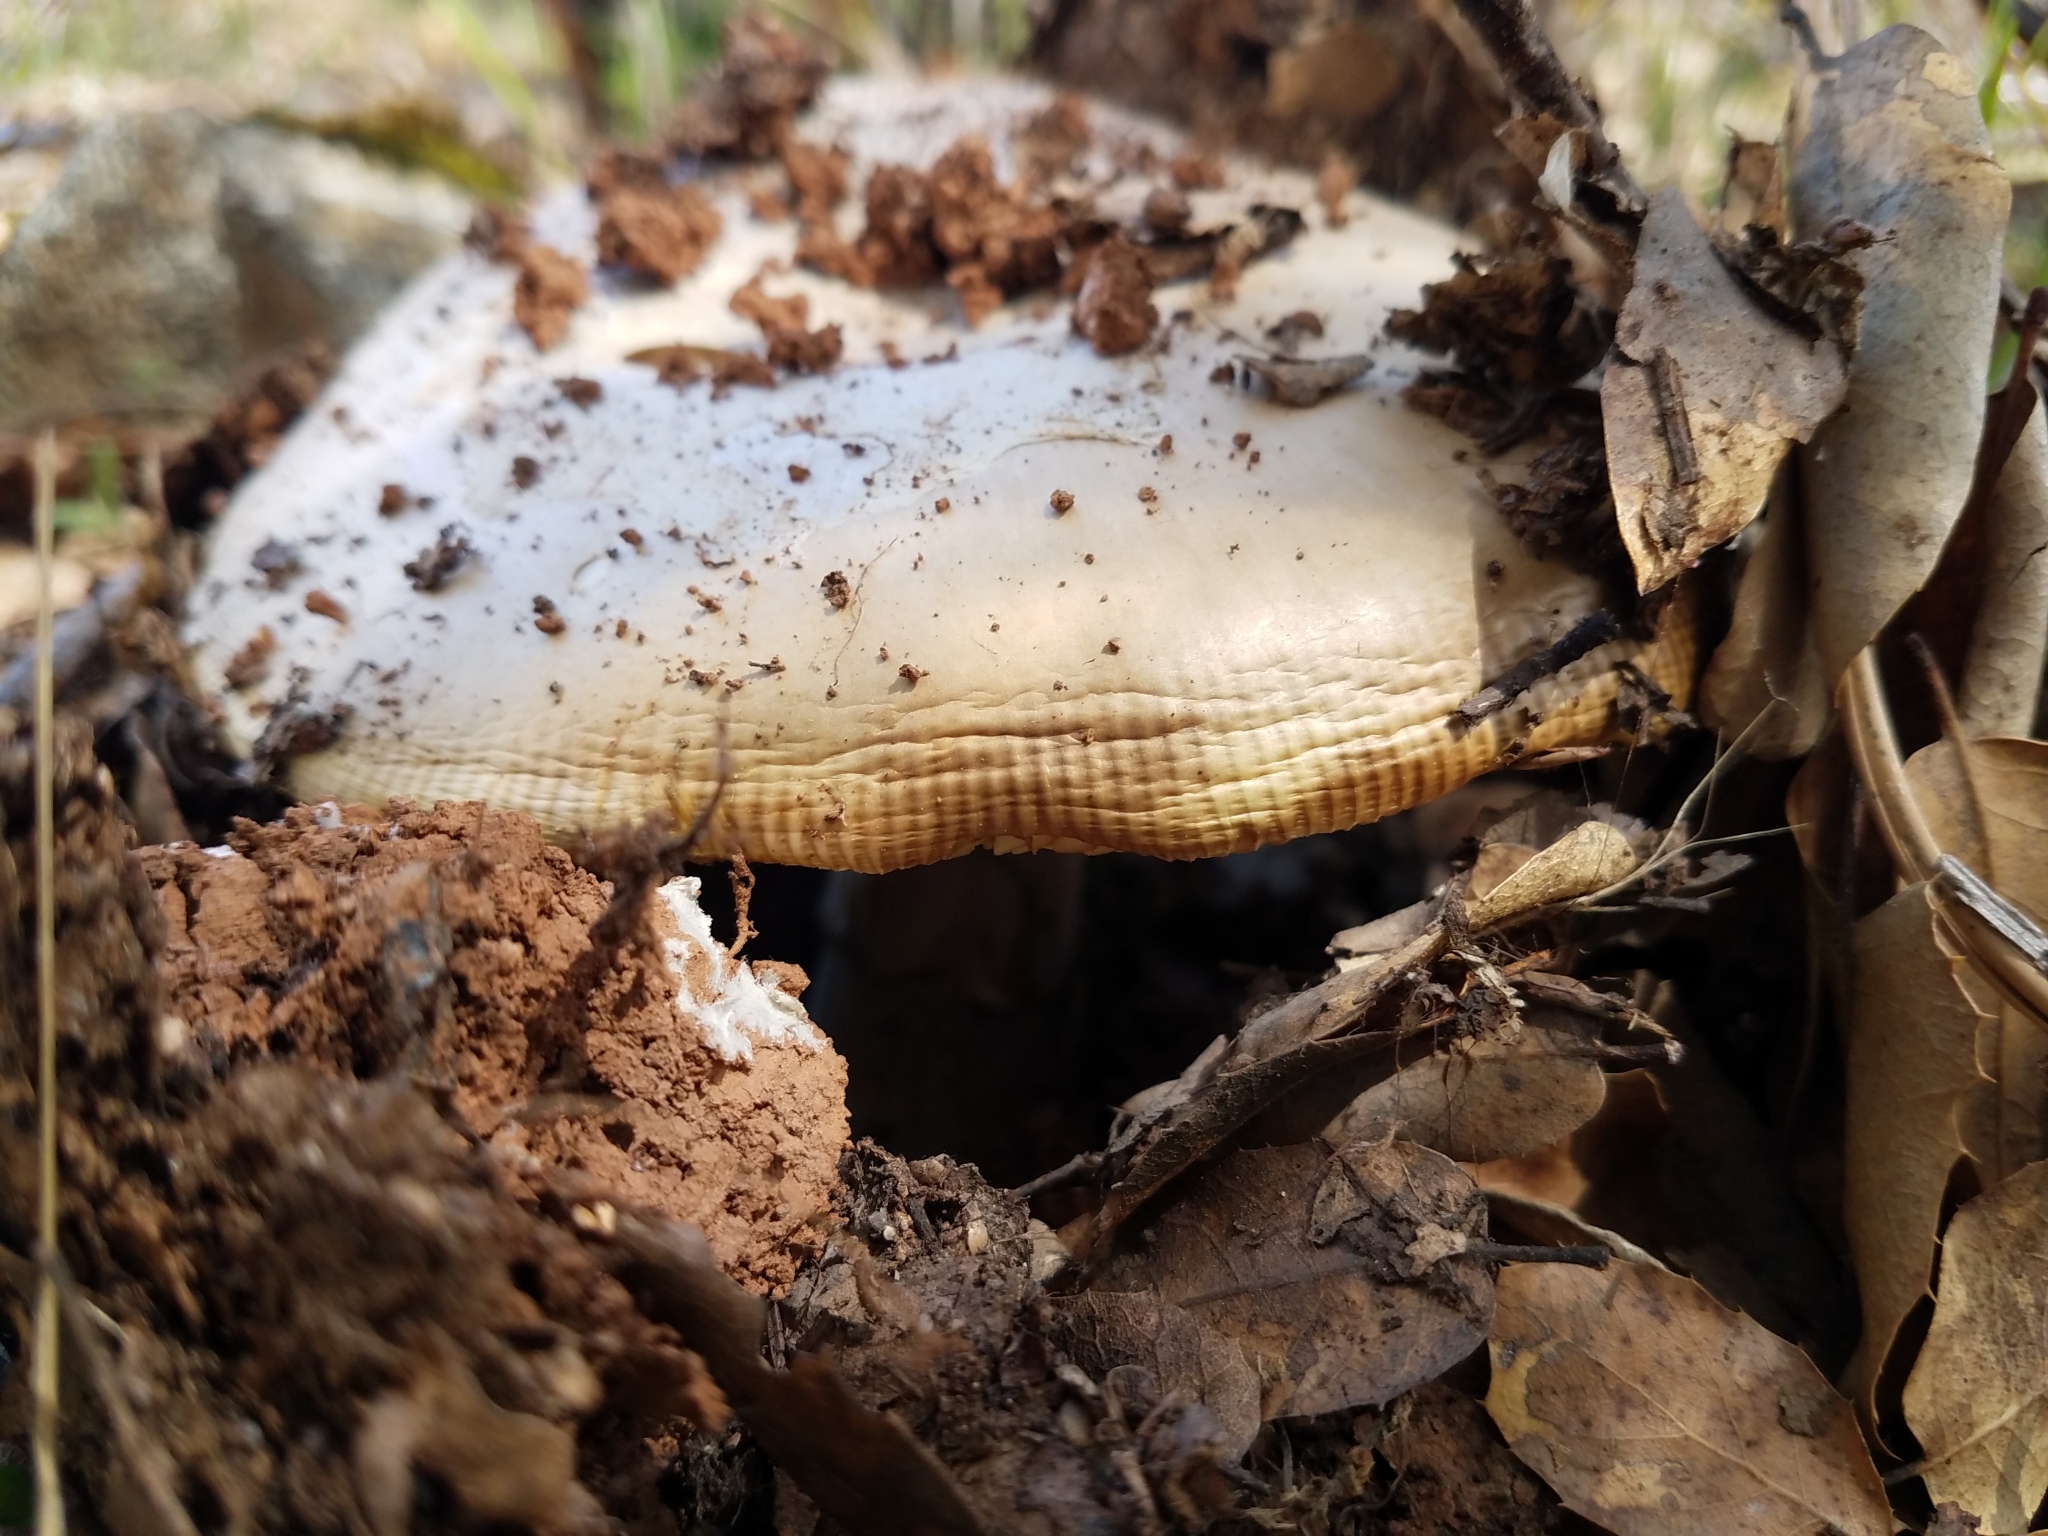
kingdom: Fungi
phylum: Basidiomycota
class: Agaricomycetes
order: Agaricales
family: Amanitaceae
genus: Amanita
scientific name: Amanita velosa
